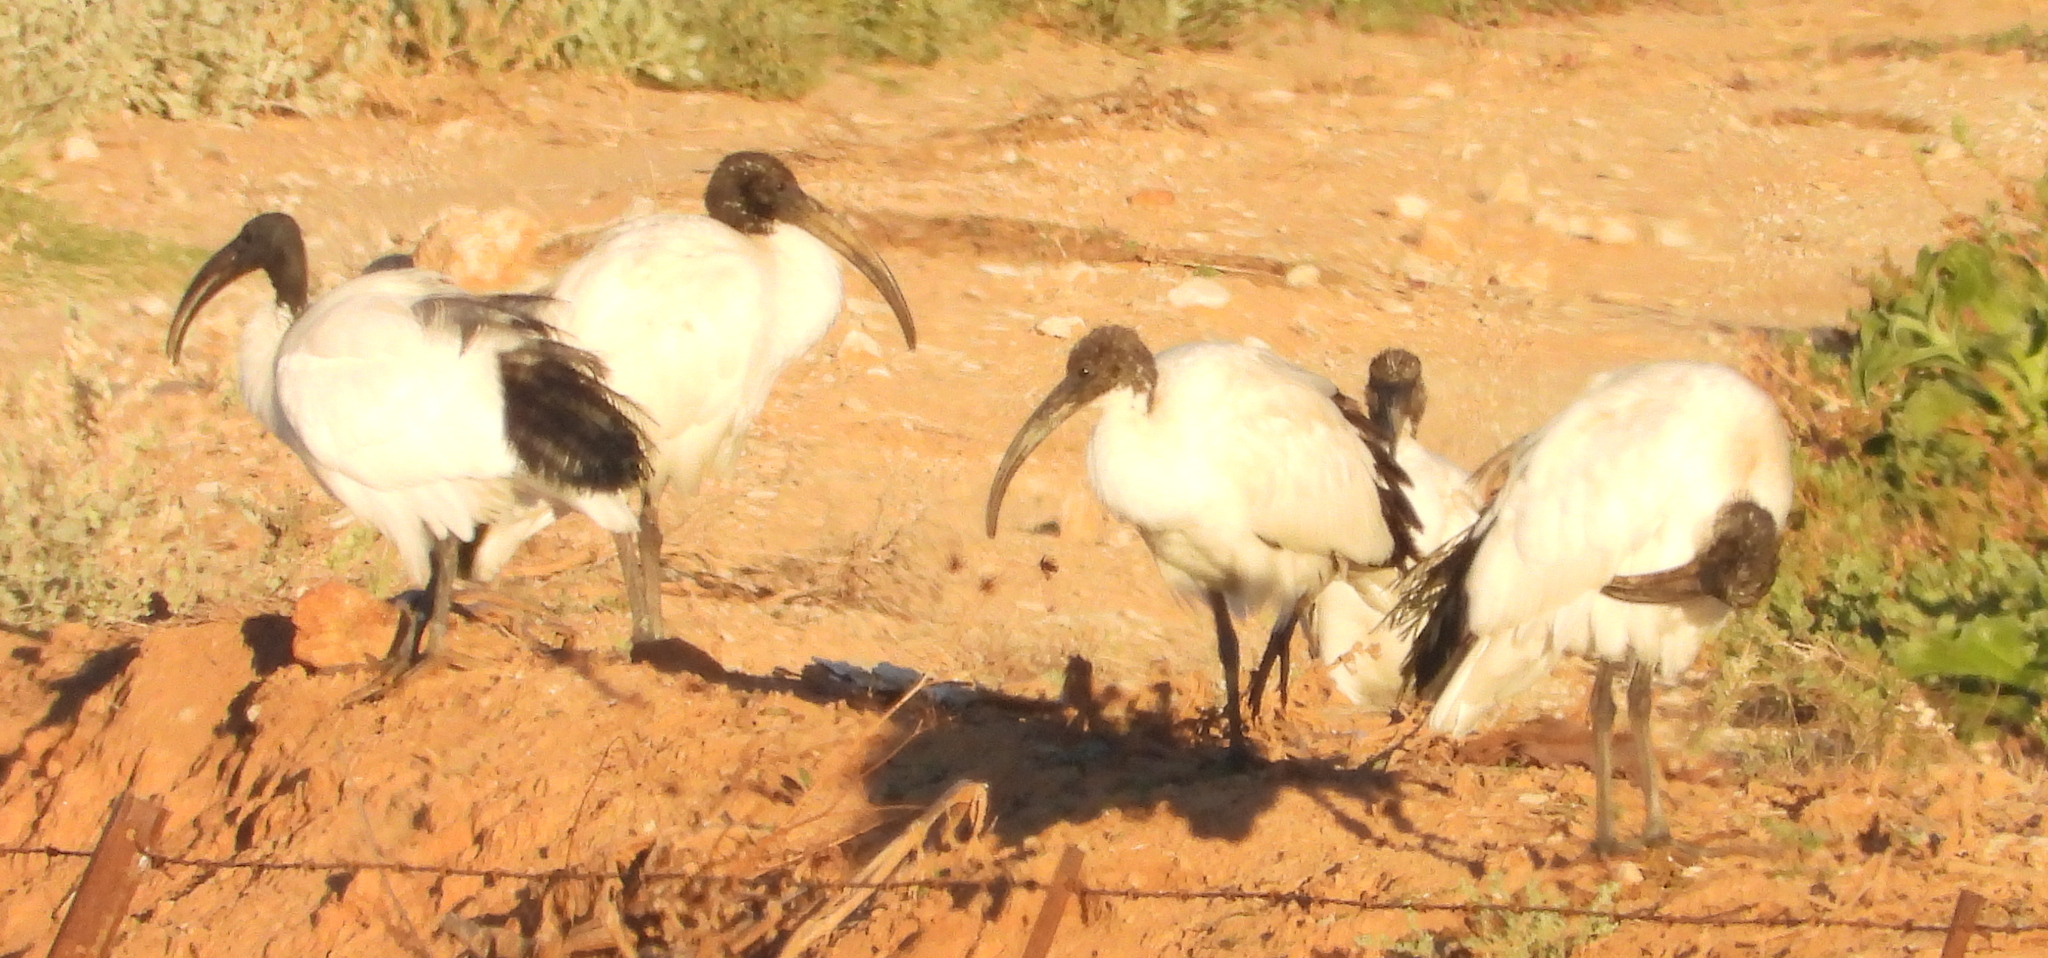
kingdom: Animalia
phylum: Chordata
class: Aves
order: Pelecaniformes
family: Threskiornithidae
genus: Threskiornis
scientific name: Threskiornis aethiopicus
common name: Sacred ibis
